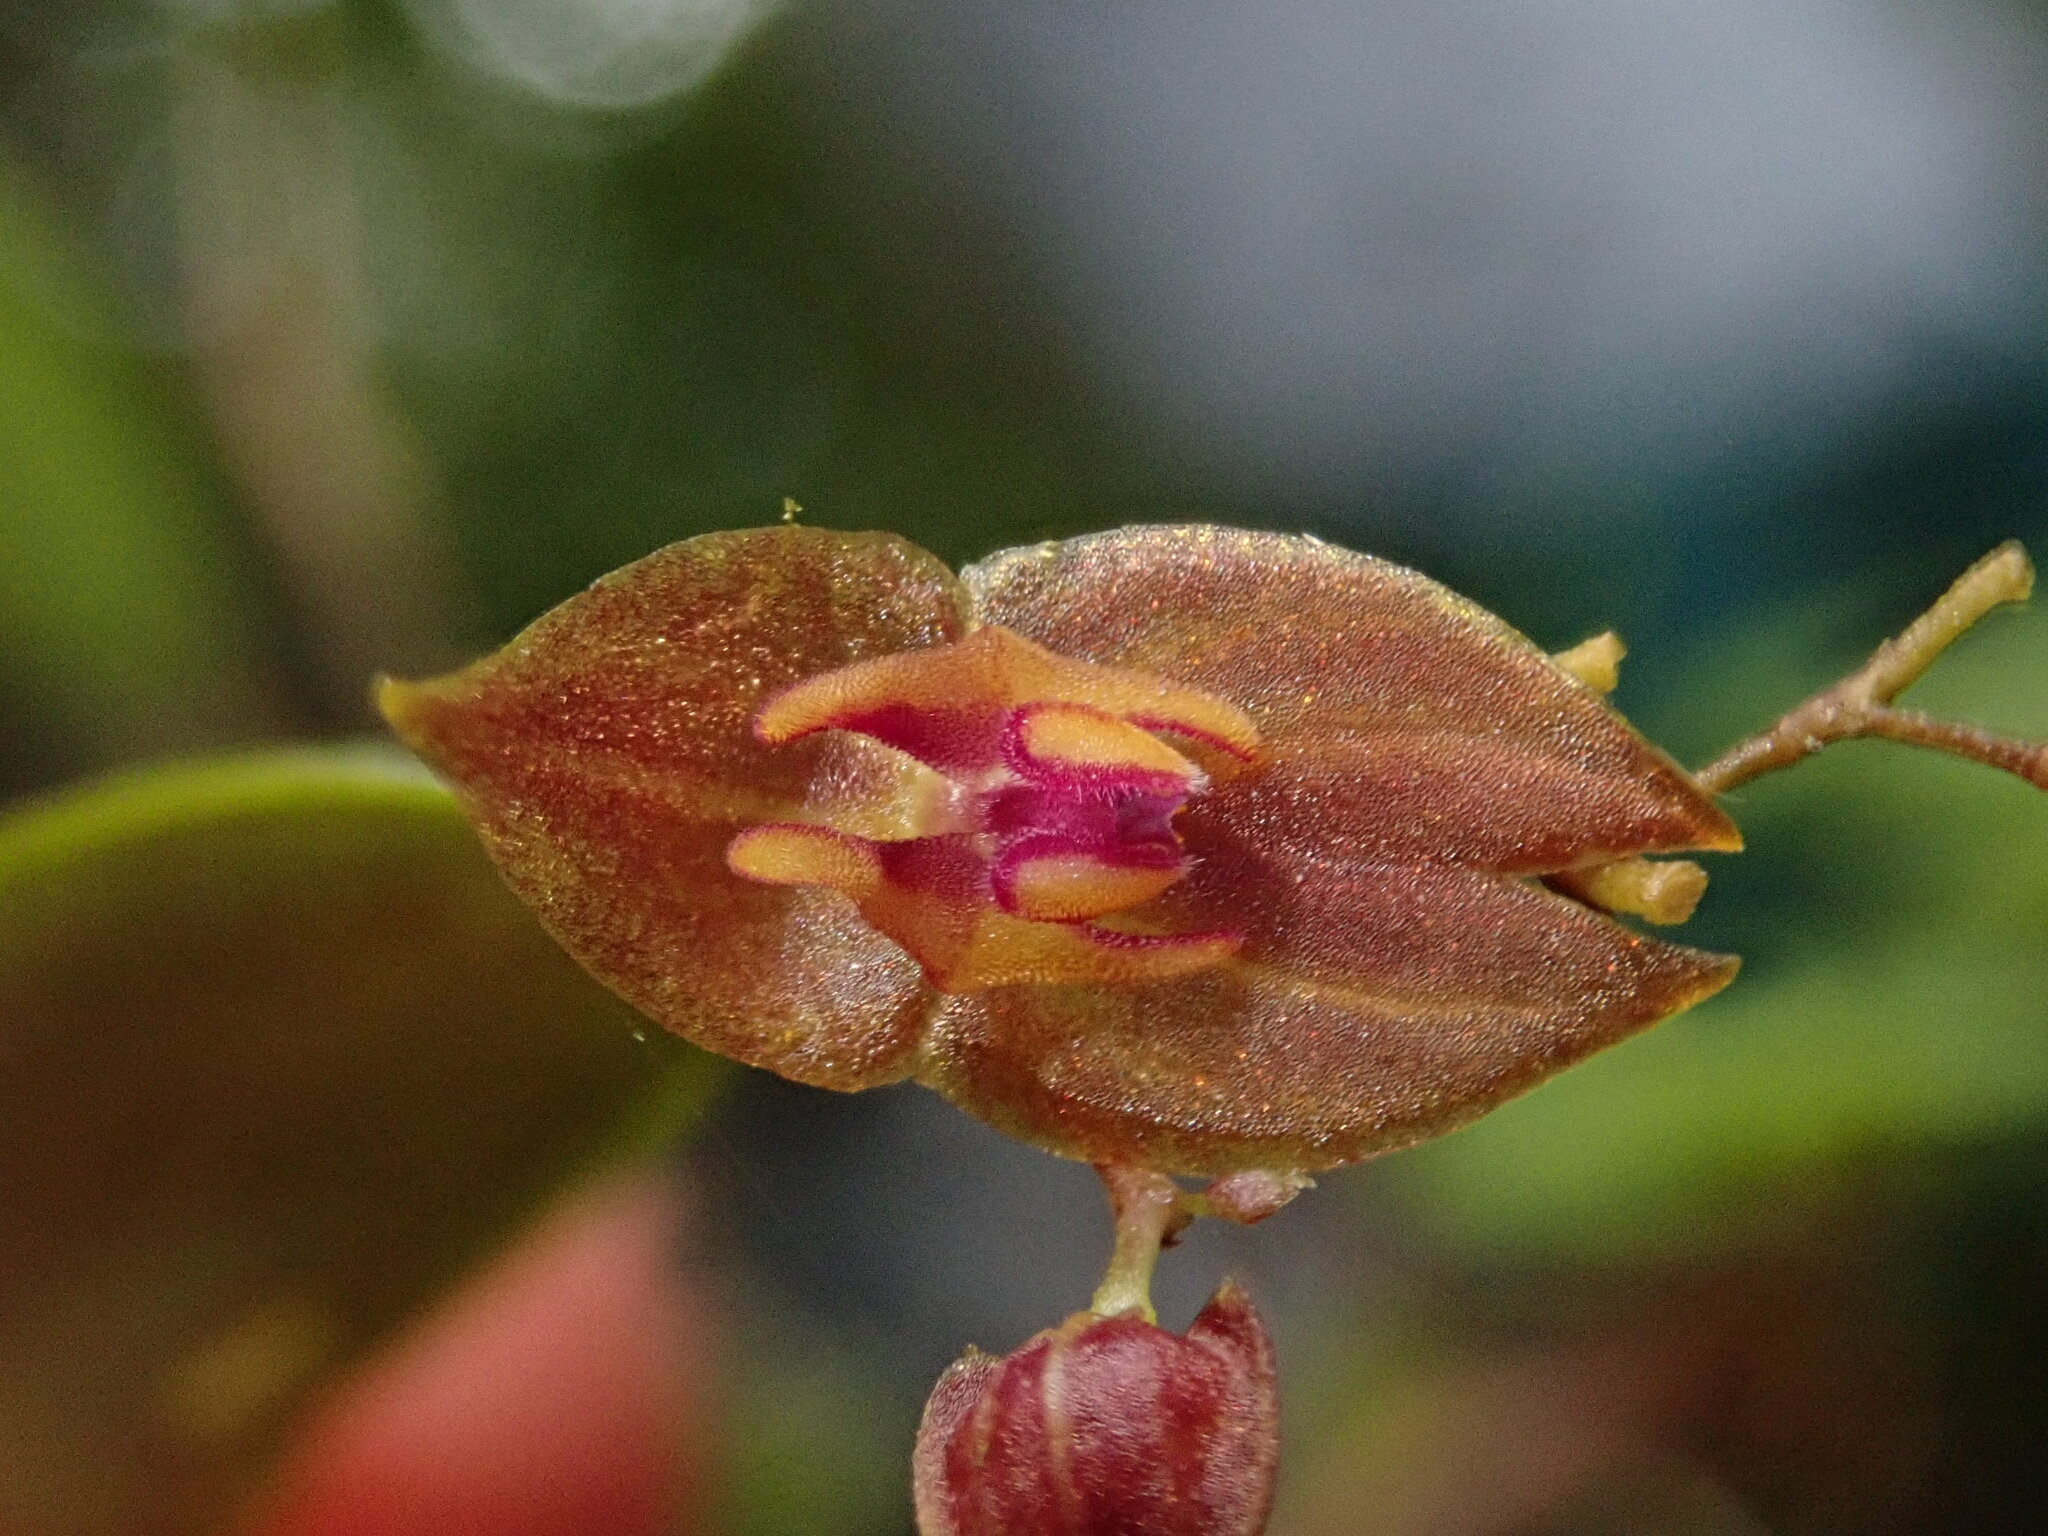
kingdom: Plantae
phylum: Tracheophyta
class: Liliopsida
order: Asparagales
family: Orchidaceae
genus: Lepanthes
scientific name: Lepanthes marthae
